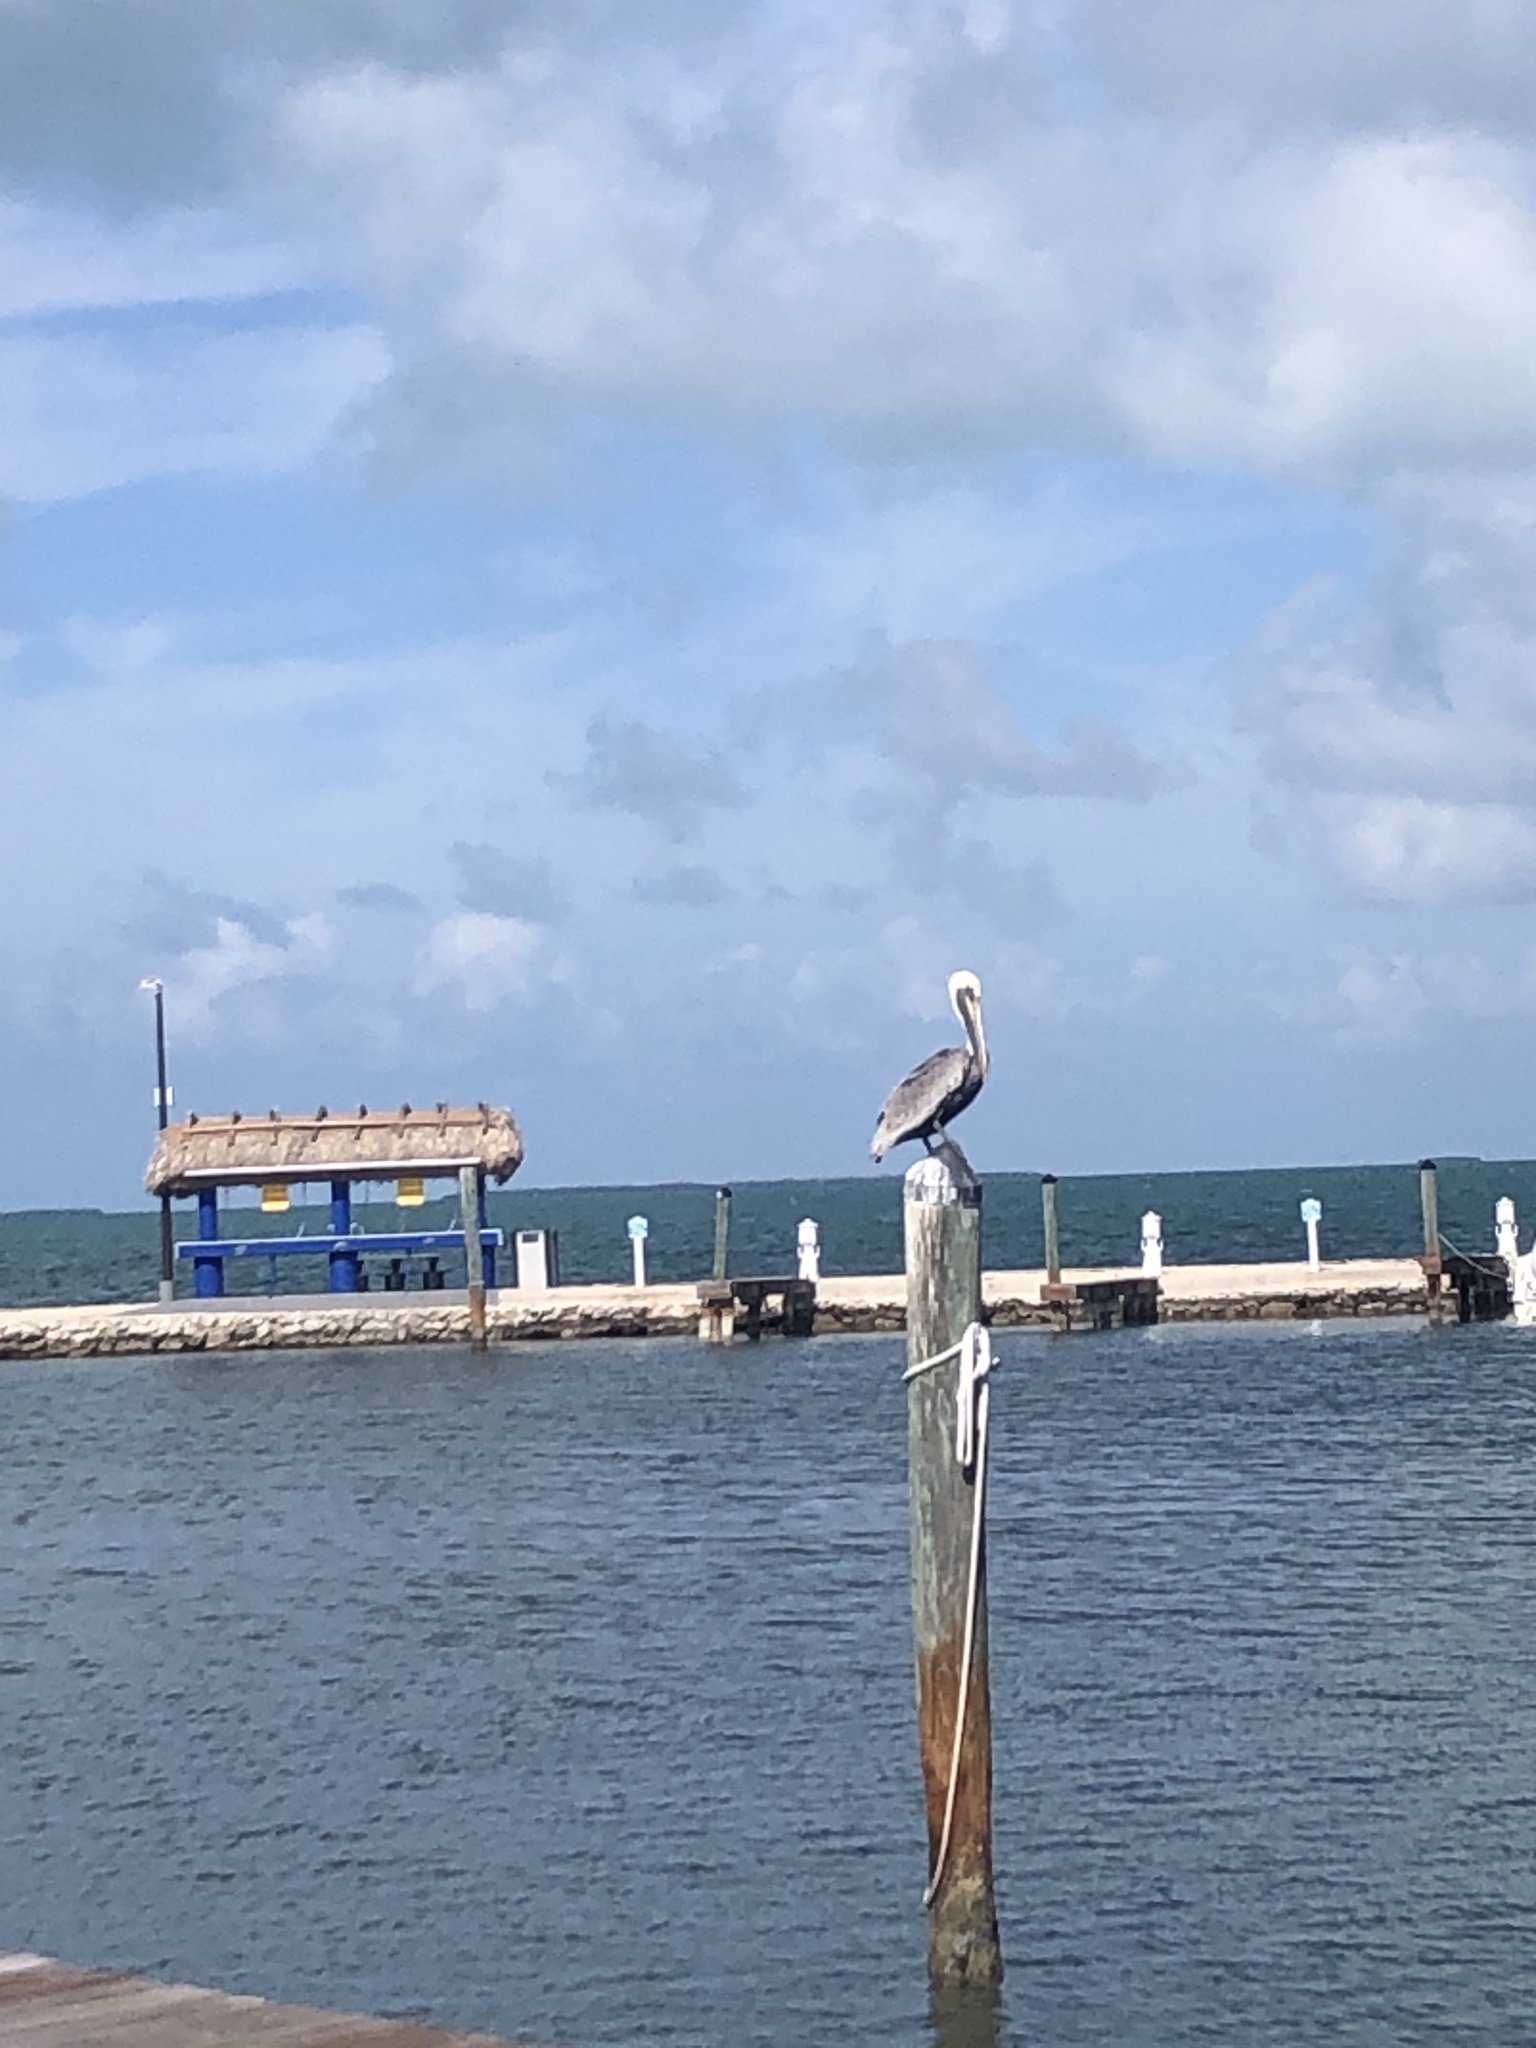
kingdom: Animalia
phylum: Chordata
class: Aves
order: Pelecaniformes
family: Pelecanidae
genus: Pelecanus
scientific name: Pelecanus occidentalis
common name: Brown pelican
